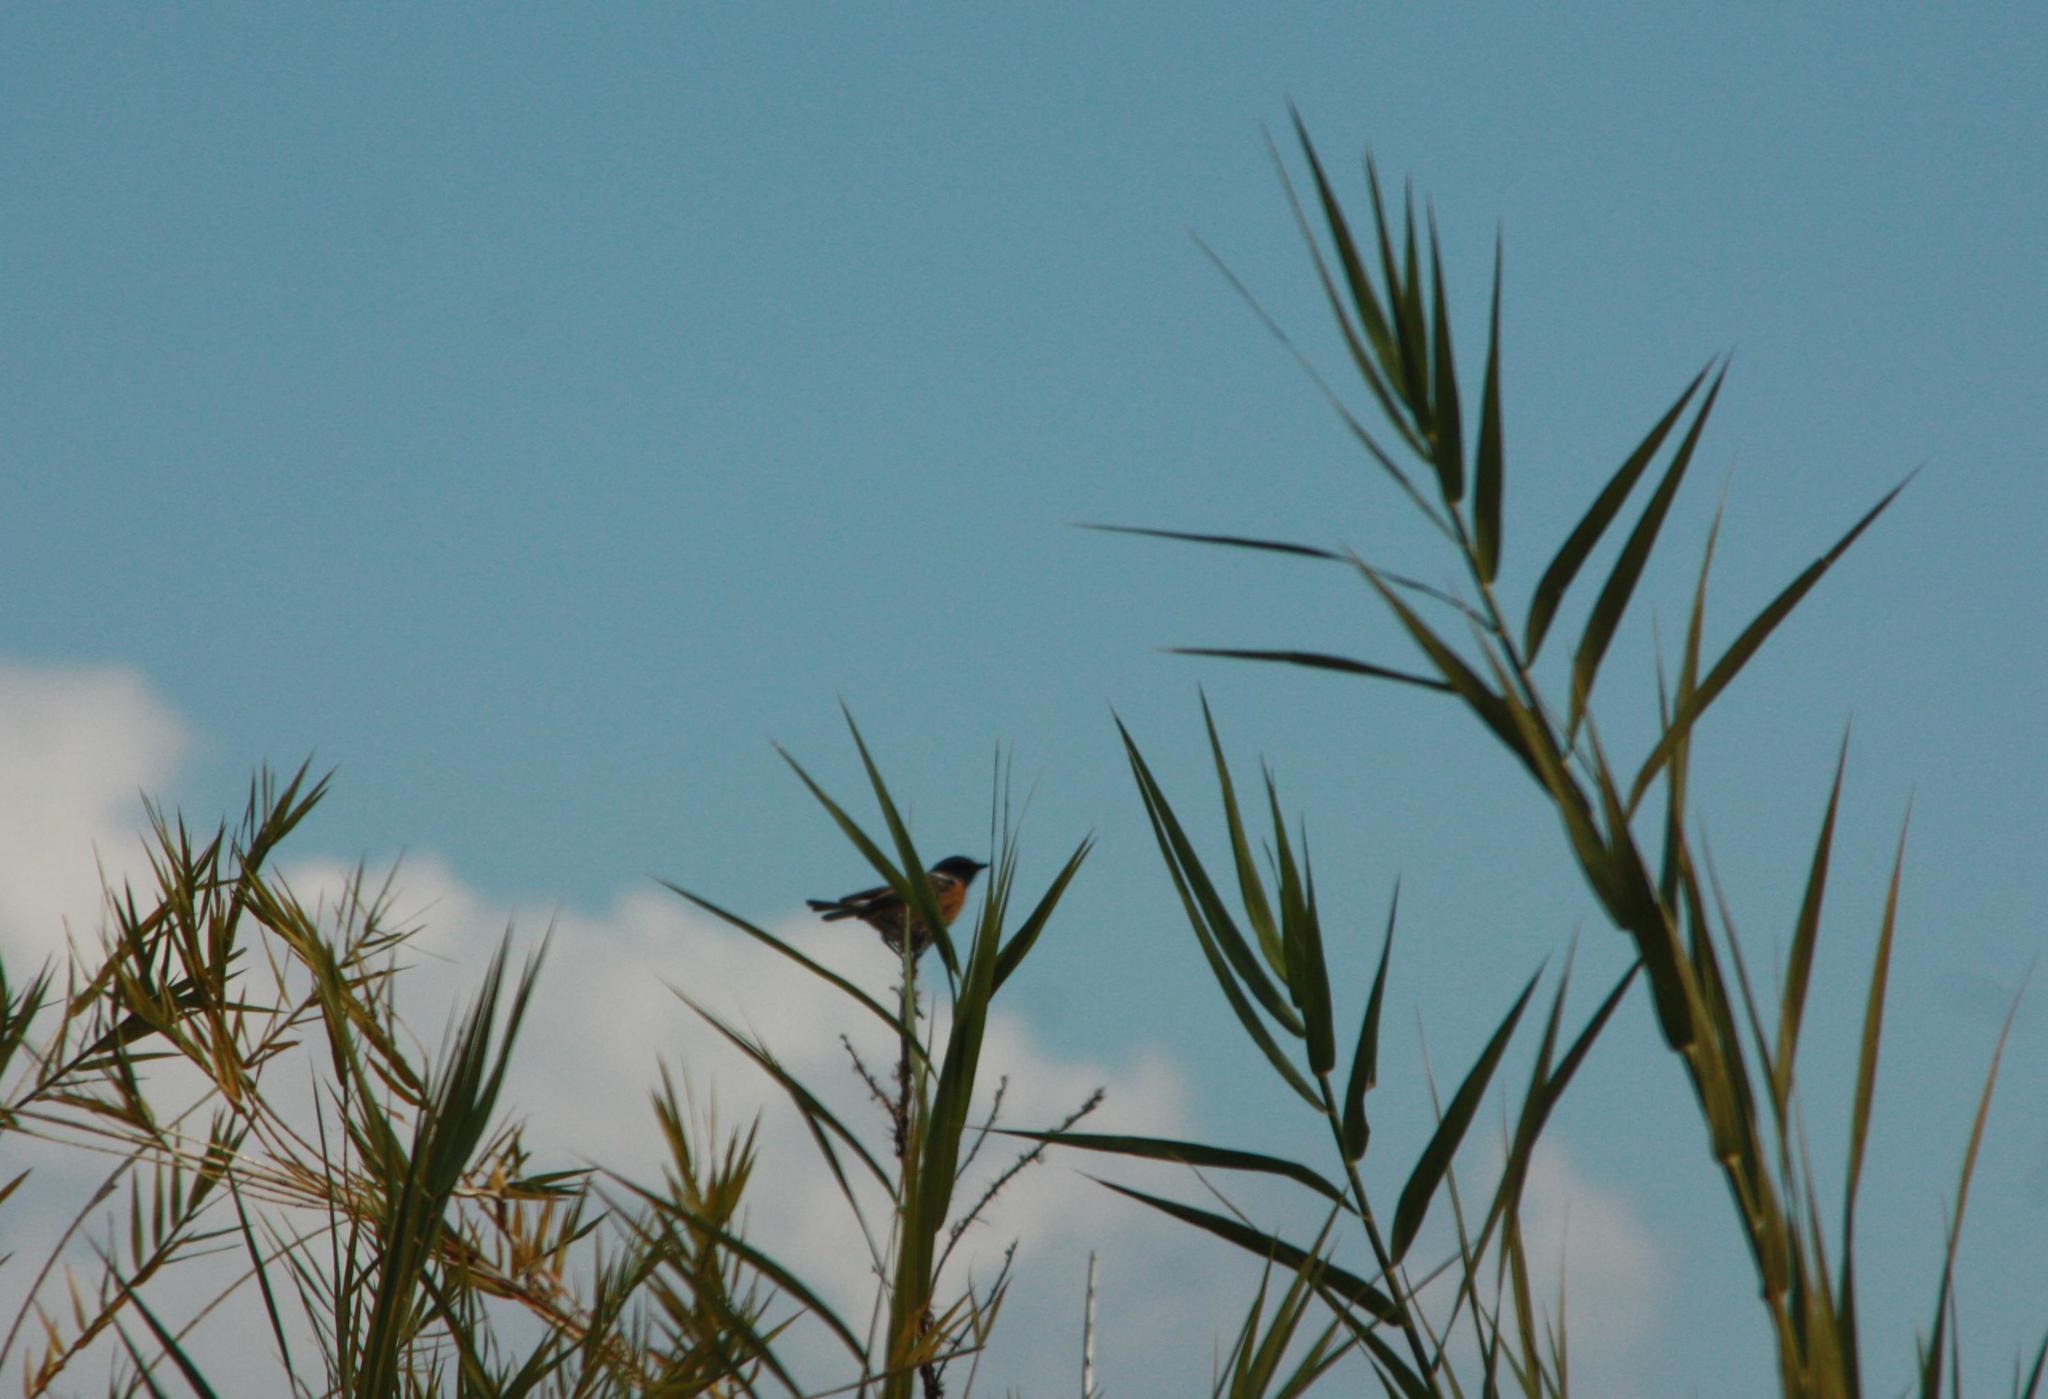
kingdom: Animalia
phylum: Chordata
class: Aves
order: Passeriformes
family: Muscicapidae
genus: Saxicola
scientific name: Saxicola rubicola
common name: European stonechat
